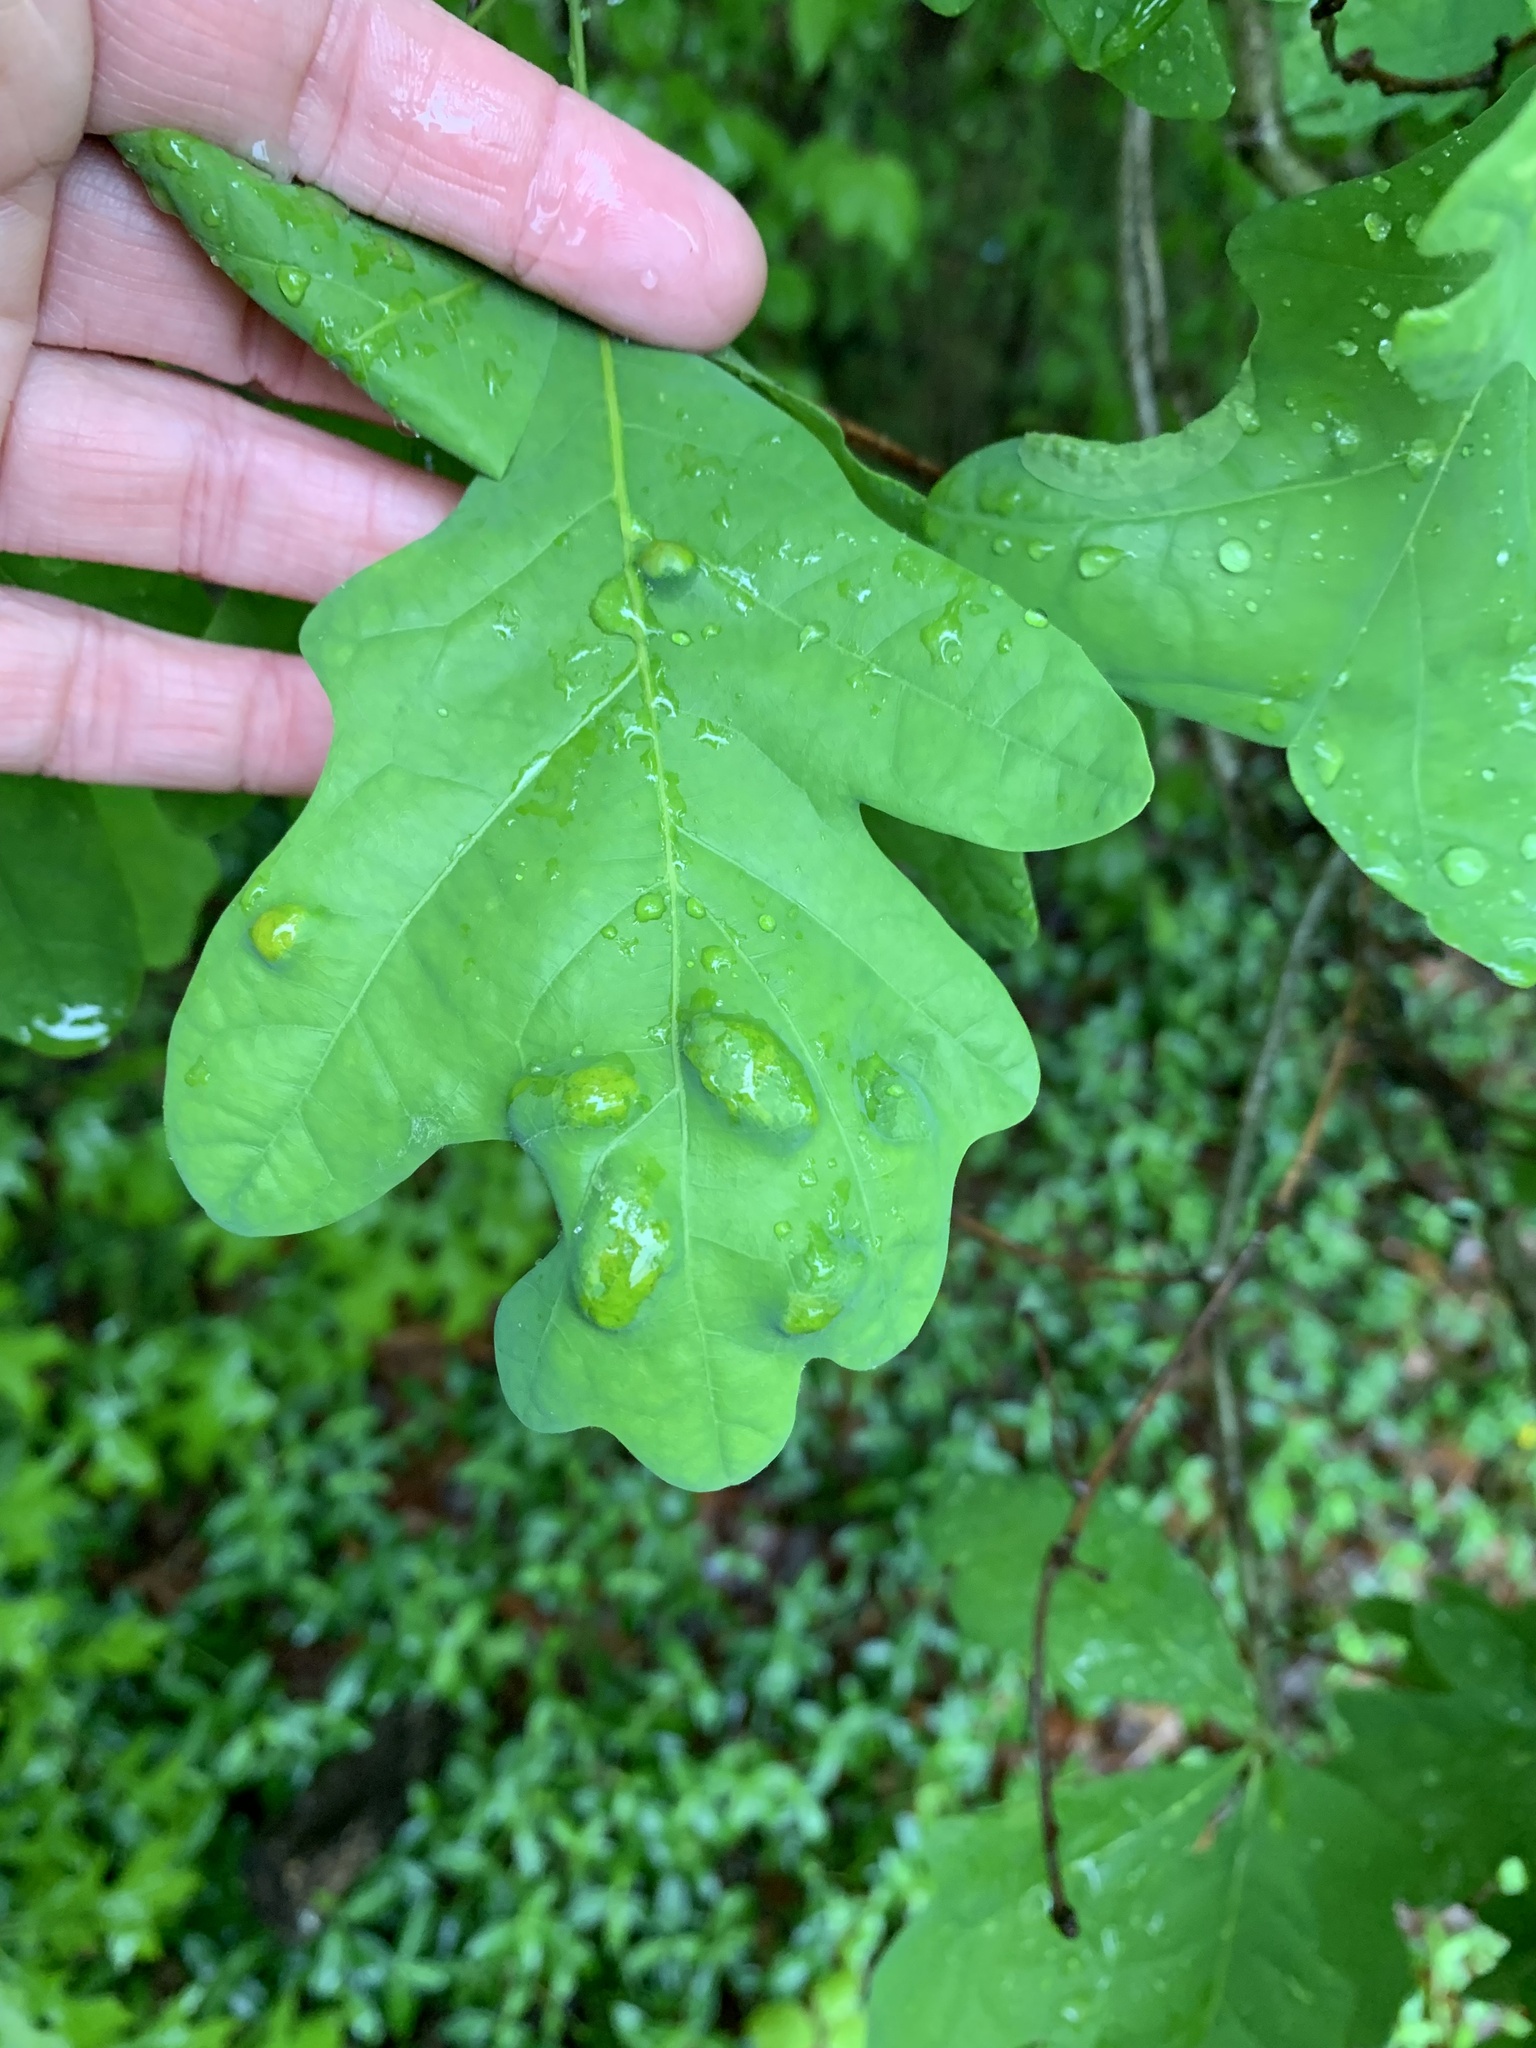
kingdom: Animalia
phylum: Arthropoda
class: Arachnida
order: Trombidiformes
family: Eriophyidae
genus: Aceria
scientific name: Aceria
